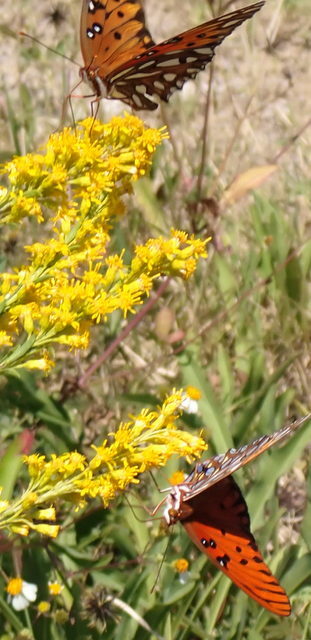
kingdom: Animalia
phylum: Arthropoda
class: Insecta
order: Lepidoptera
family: Nymphalidae
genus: Dione
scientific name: Dione vanillae
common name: Gulf fritillary
